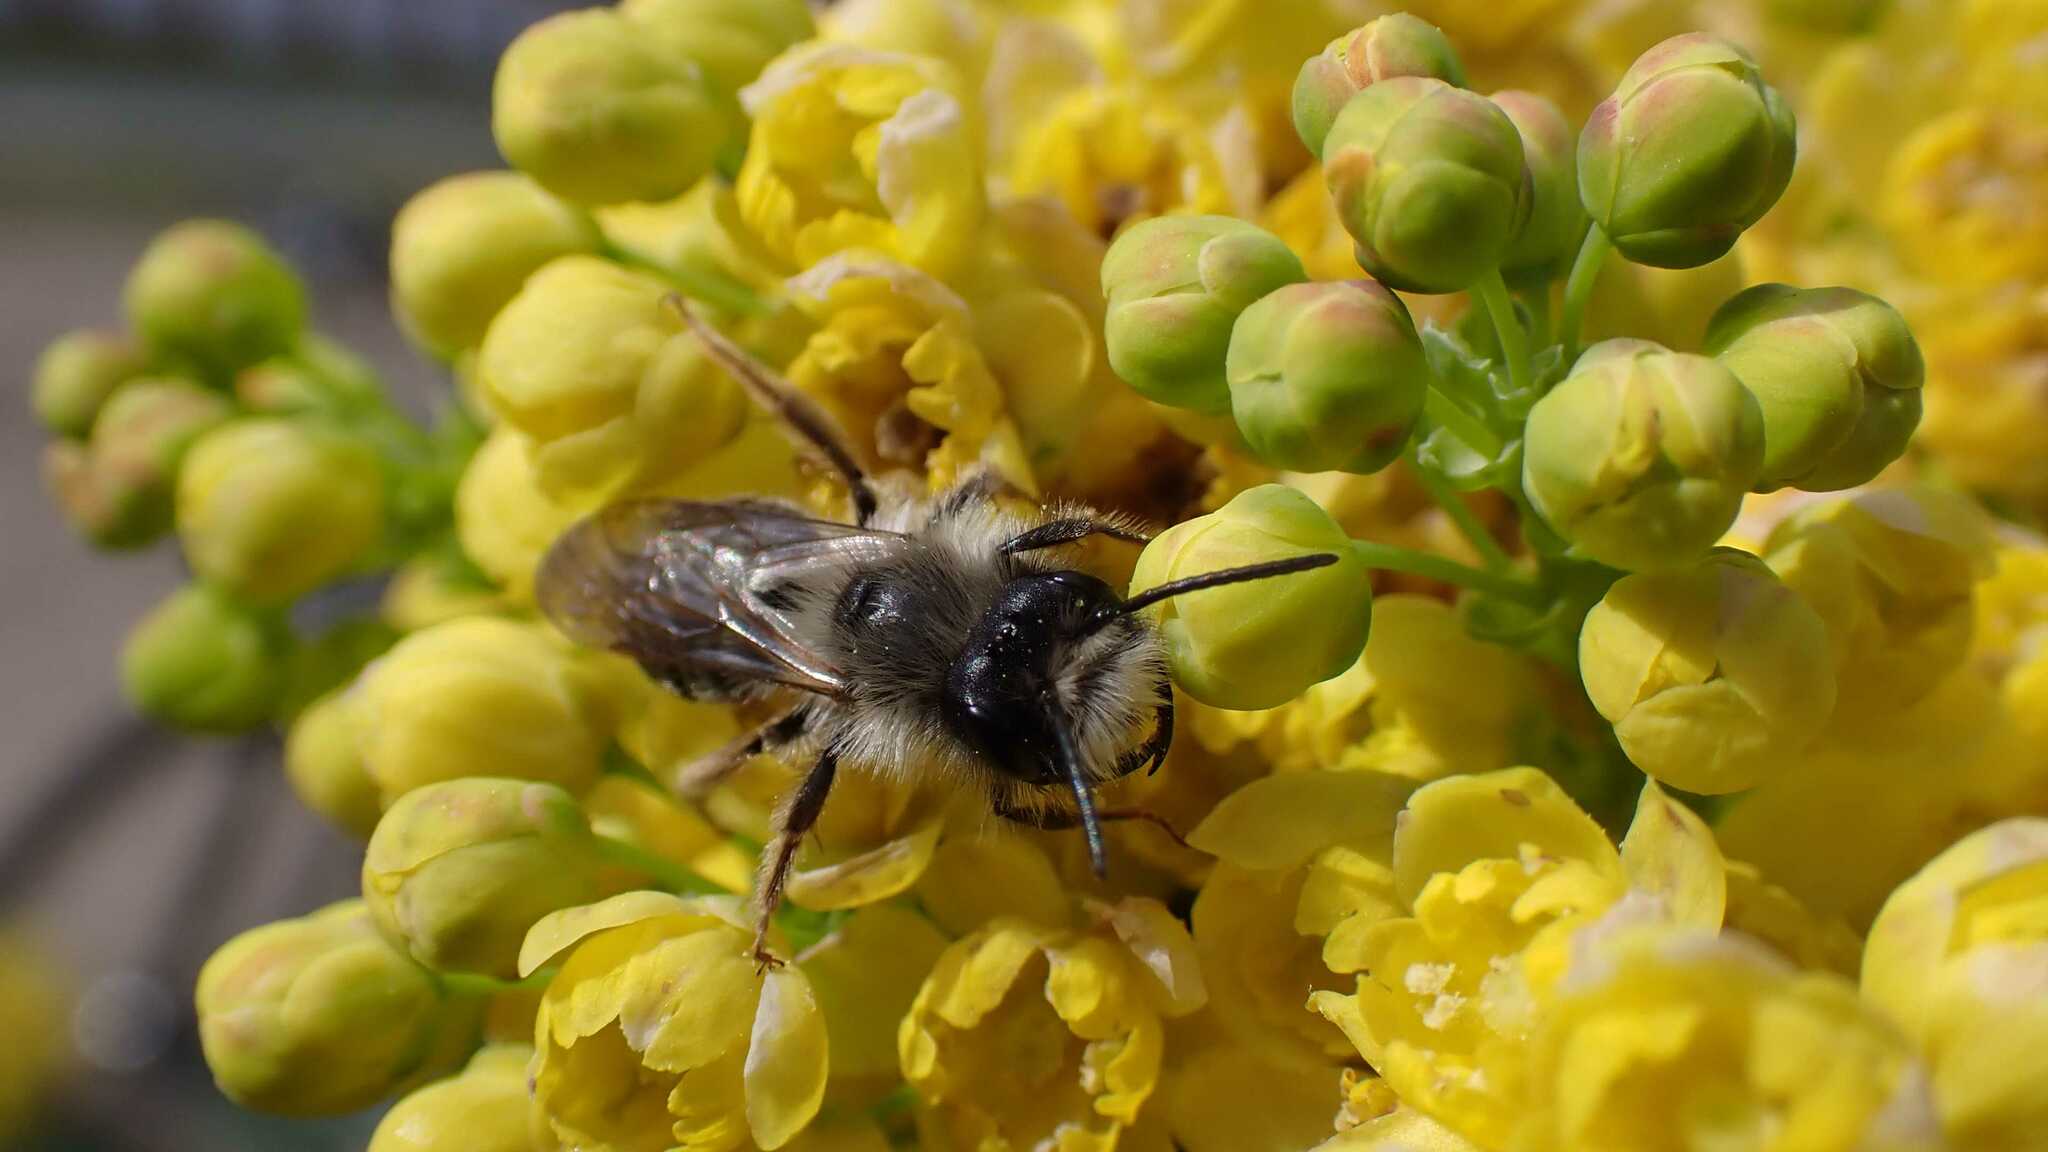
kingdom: Animalia
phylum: Arthropoda
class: Insecta
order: Hymenoptera
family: Andrenidae
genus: Andrena
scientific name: Andrena vaga
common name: Grey-backed mining bee
